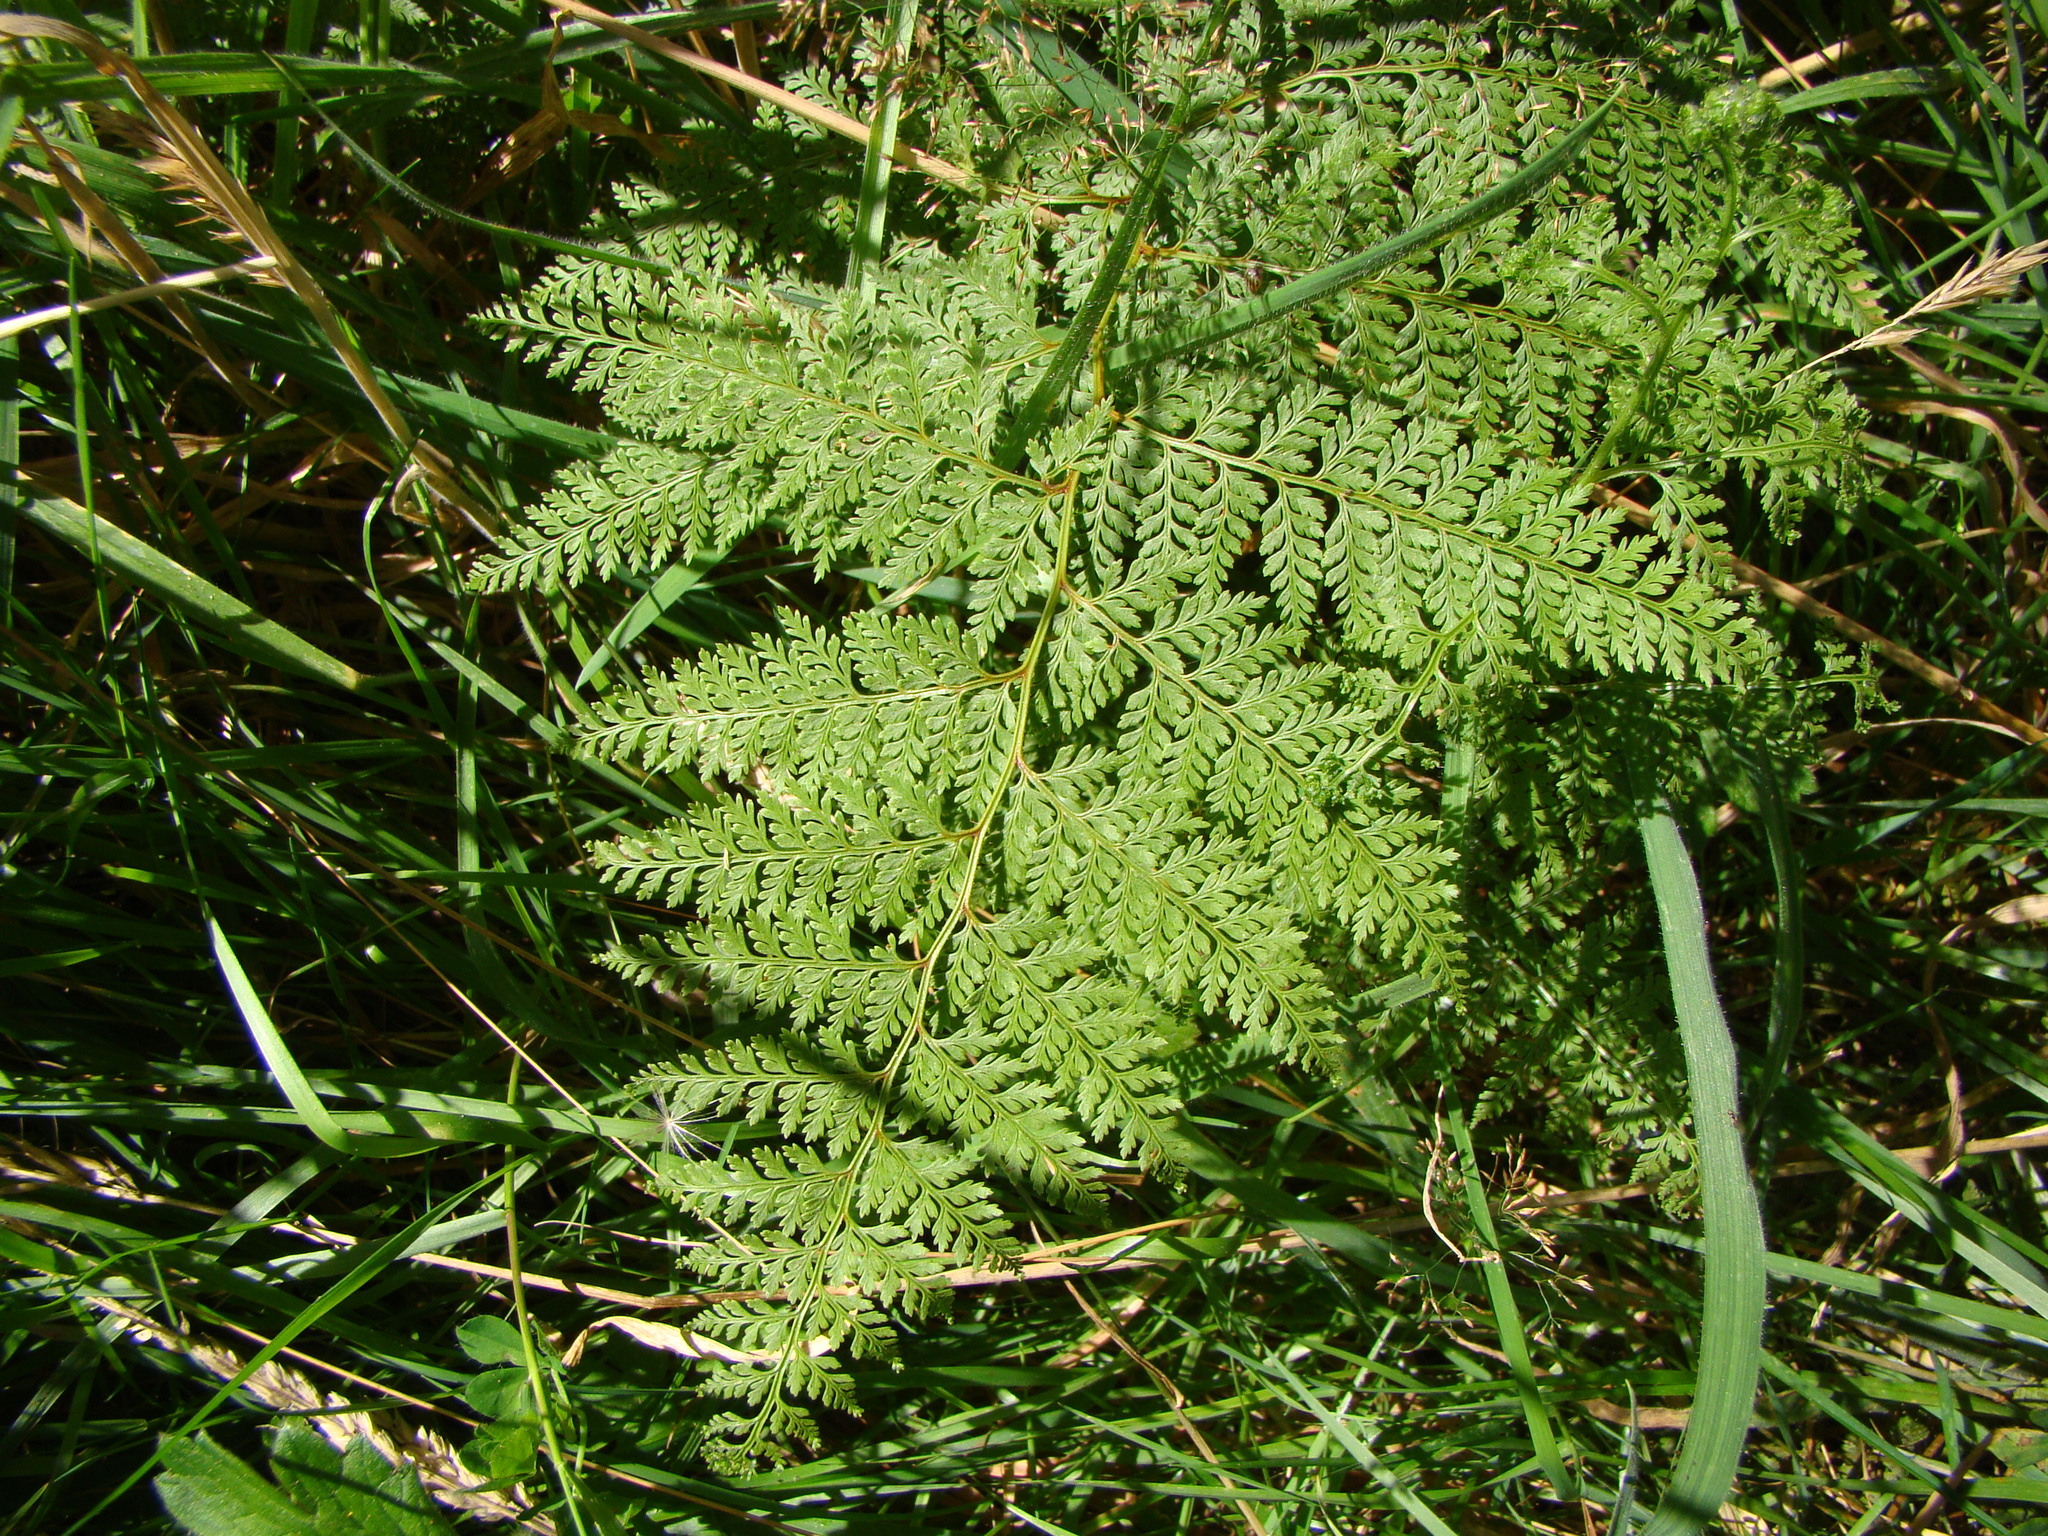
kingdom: Plantae
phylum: Tracheophyta
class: Polypodiopsida
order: Polypodiales
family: Dennstaedtiaceae
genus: Paesia
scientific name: Paesia scaberula
